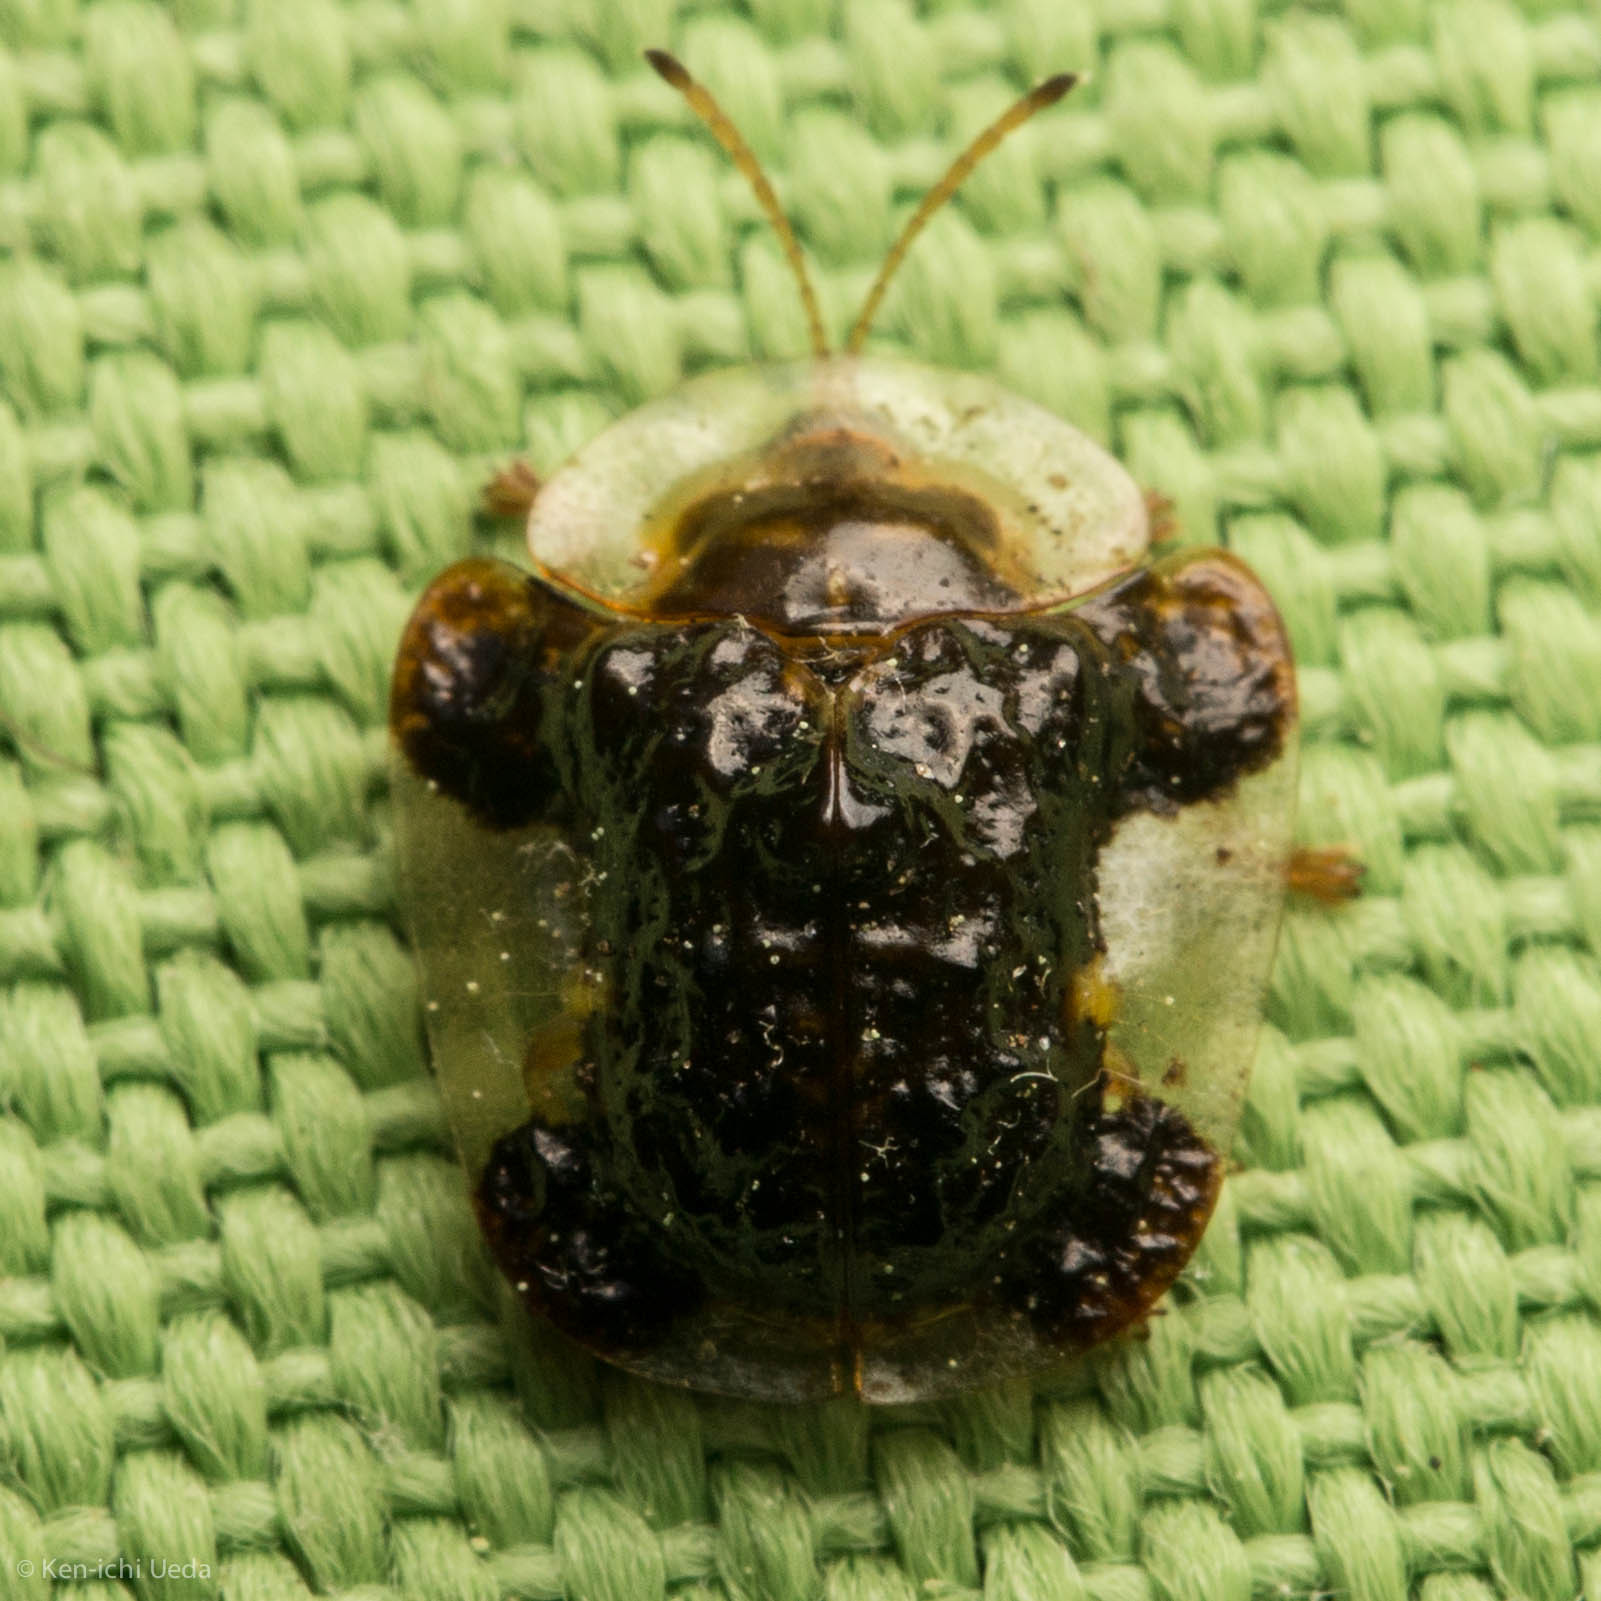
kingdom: Animalia
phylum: Arthropoda
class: Insecta
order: Coleoptera
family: Chrysomelidae
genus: Helocassis
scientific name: Helocassis clavata
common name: Clavate tortoise beetle
